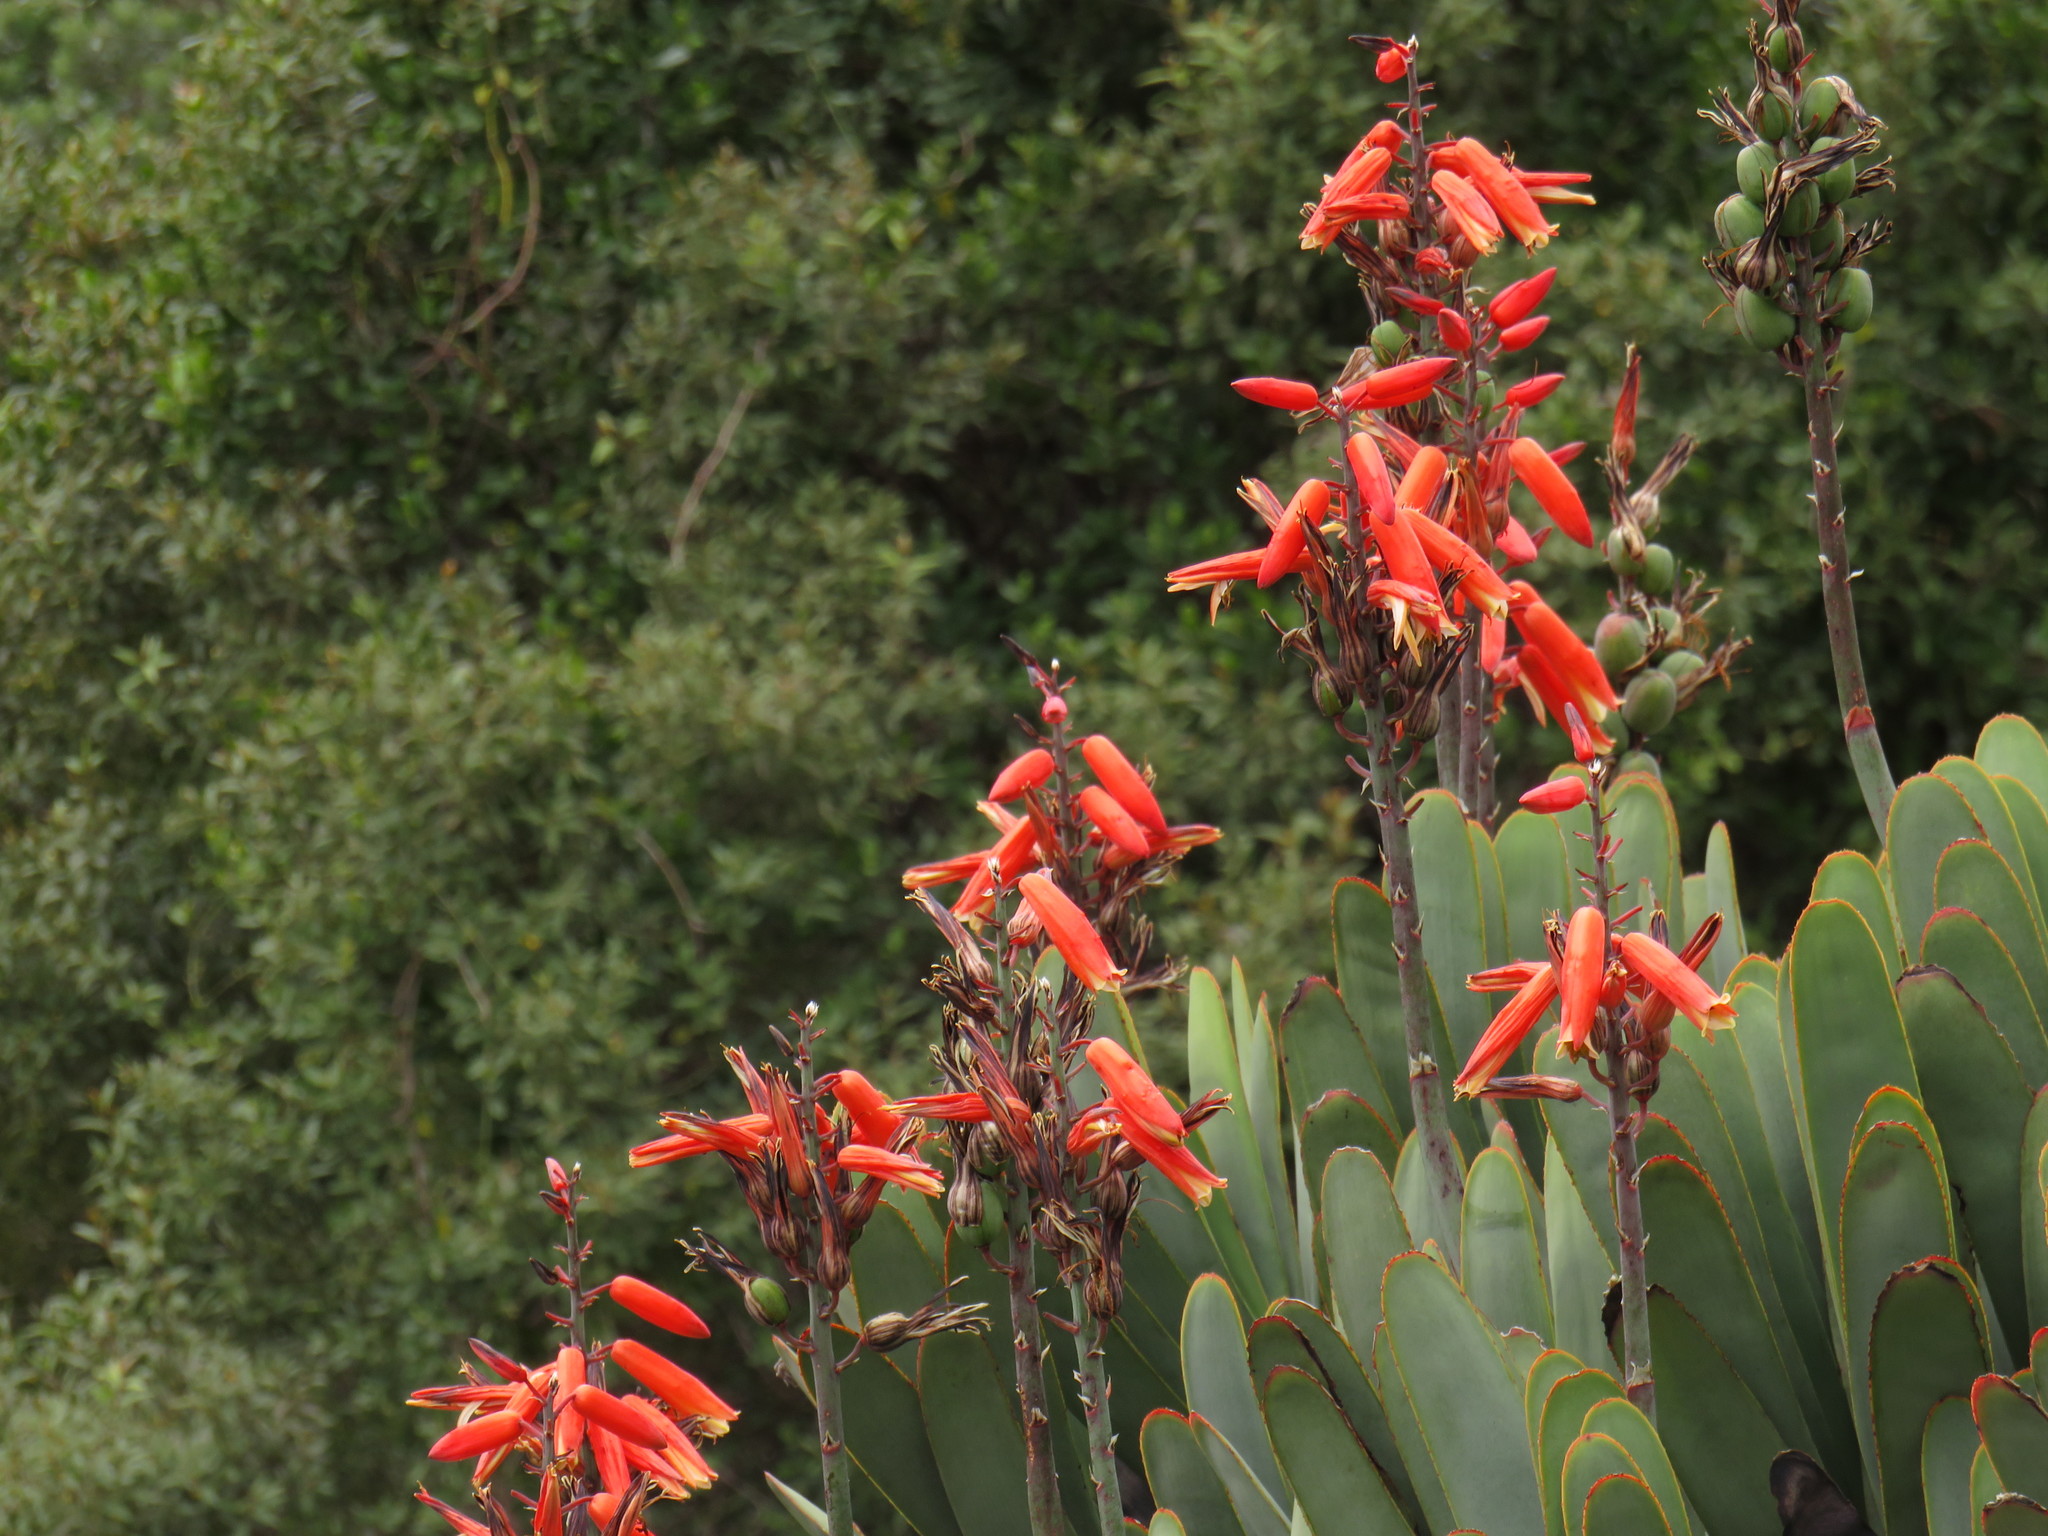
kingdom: Plantae
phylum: Tracheophyta
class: Liliopsida
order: Asparagales
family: Asphodelaceae
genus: Kumara
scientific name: Kumara plicatilis
